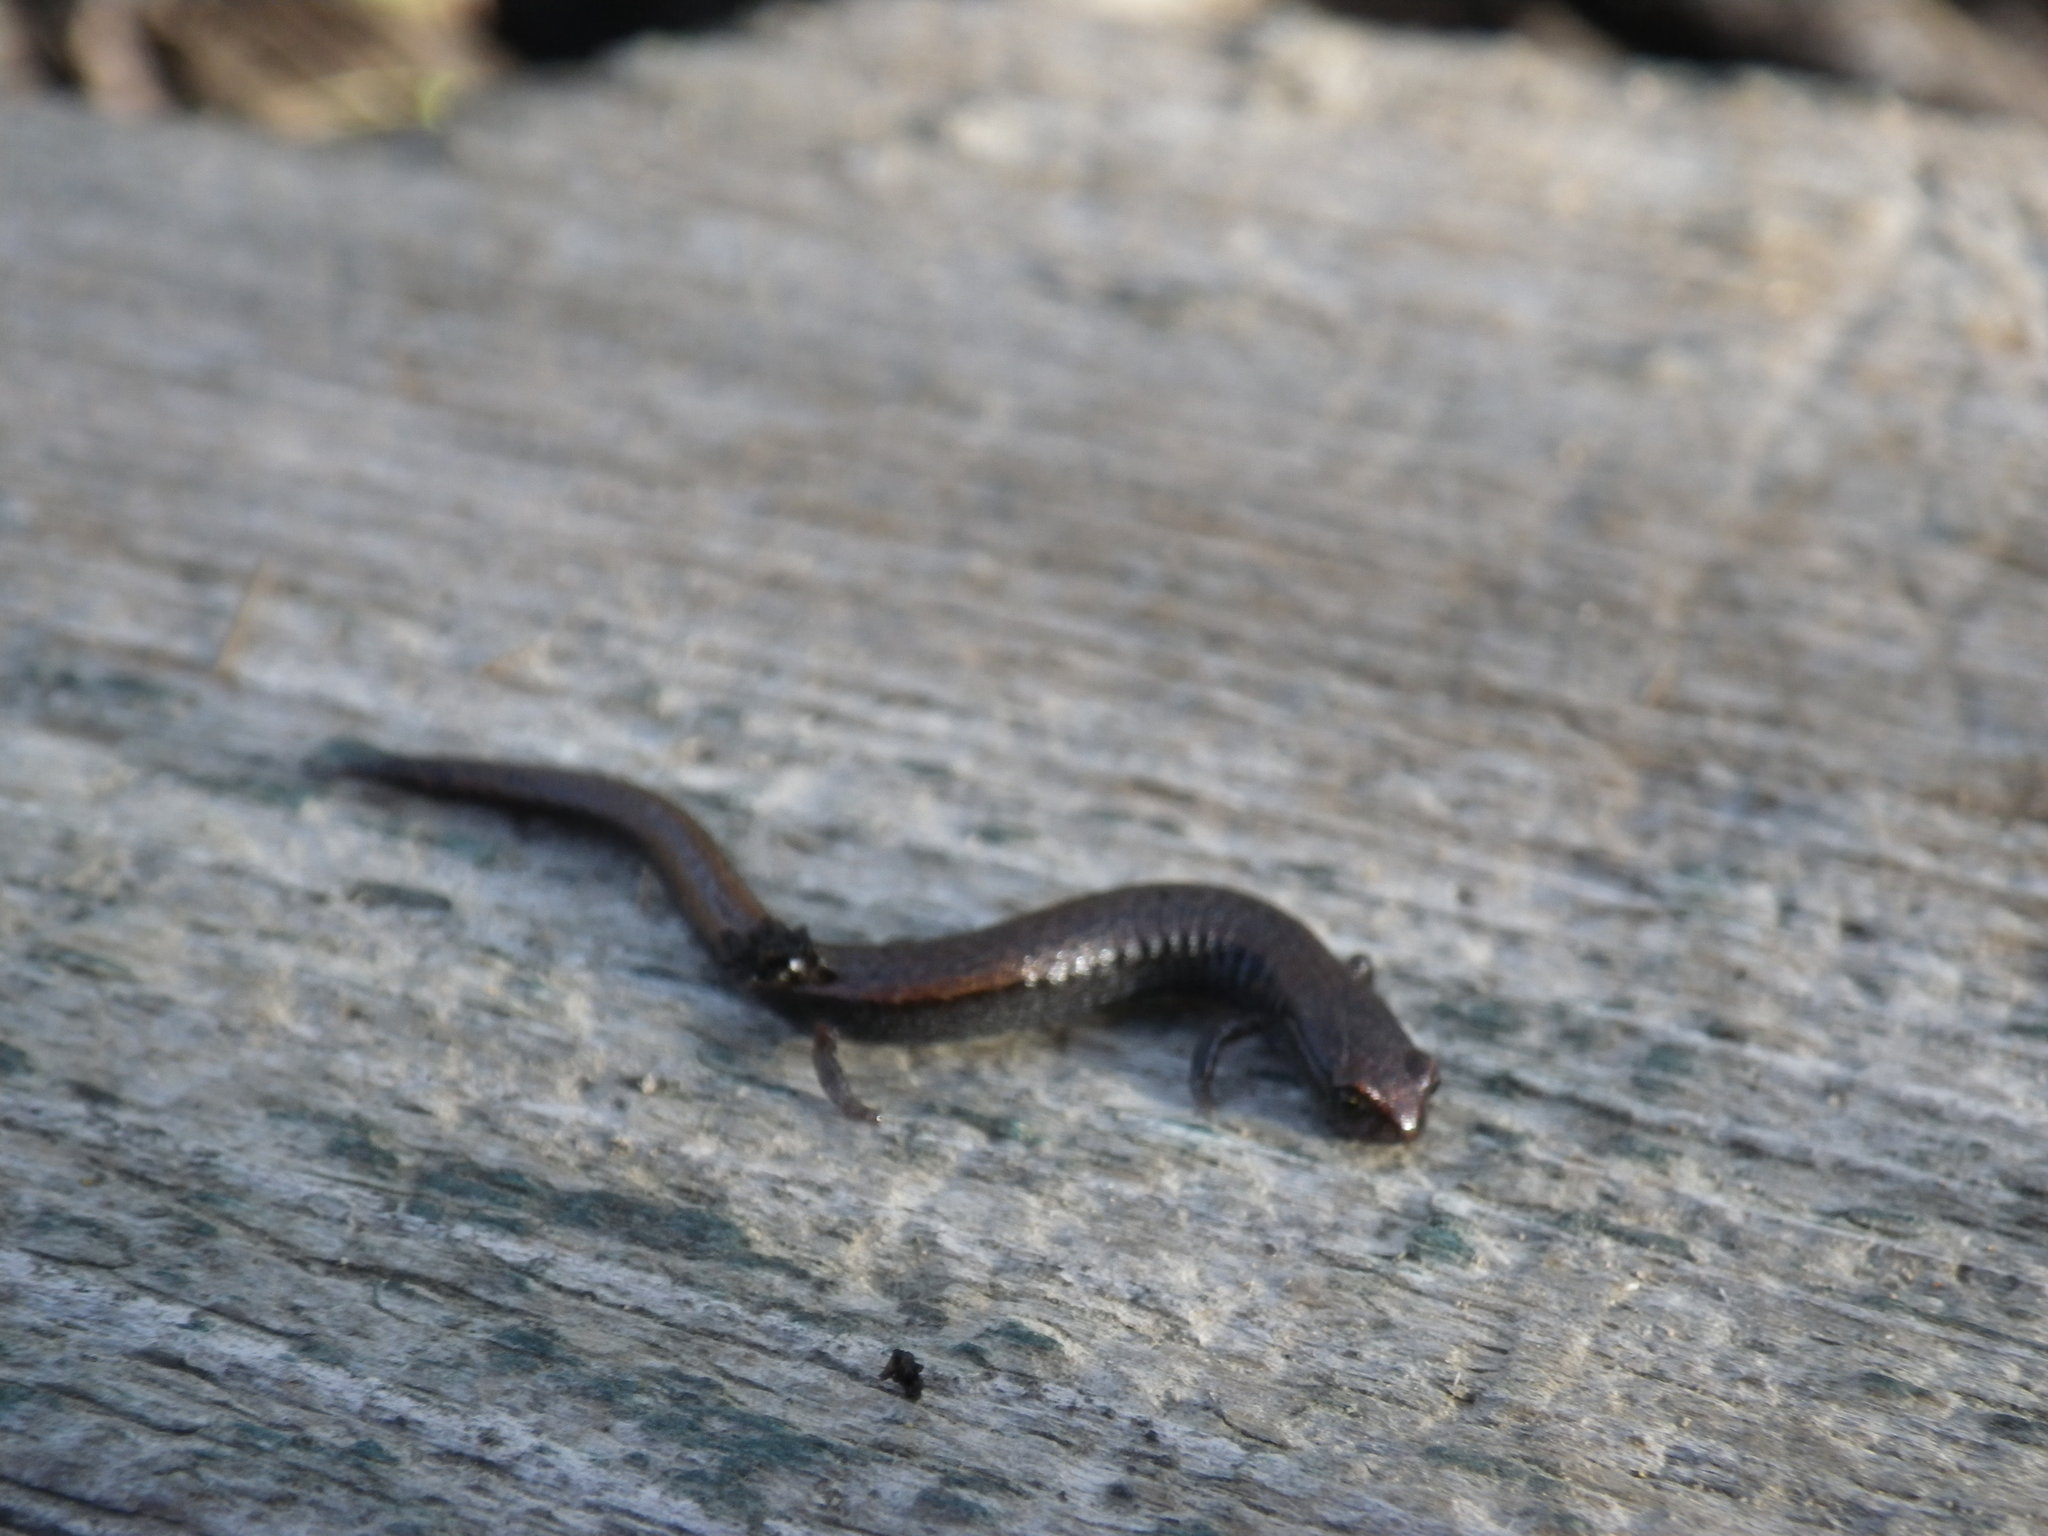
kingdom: Animalia
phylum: Chordata
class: Amphibia
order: Caudata
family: Plethodontidae
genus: Batrachoseps
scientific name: Batrachoseps attenuatus
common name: California slender salamander
